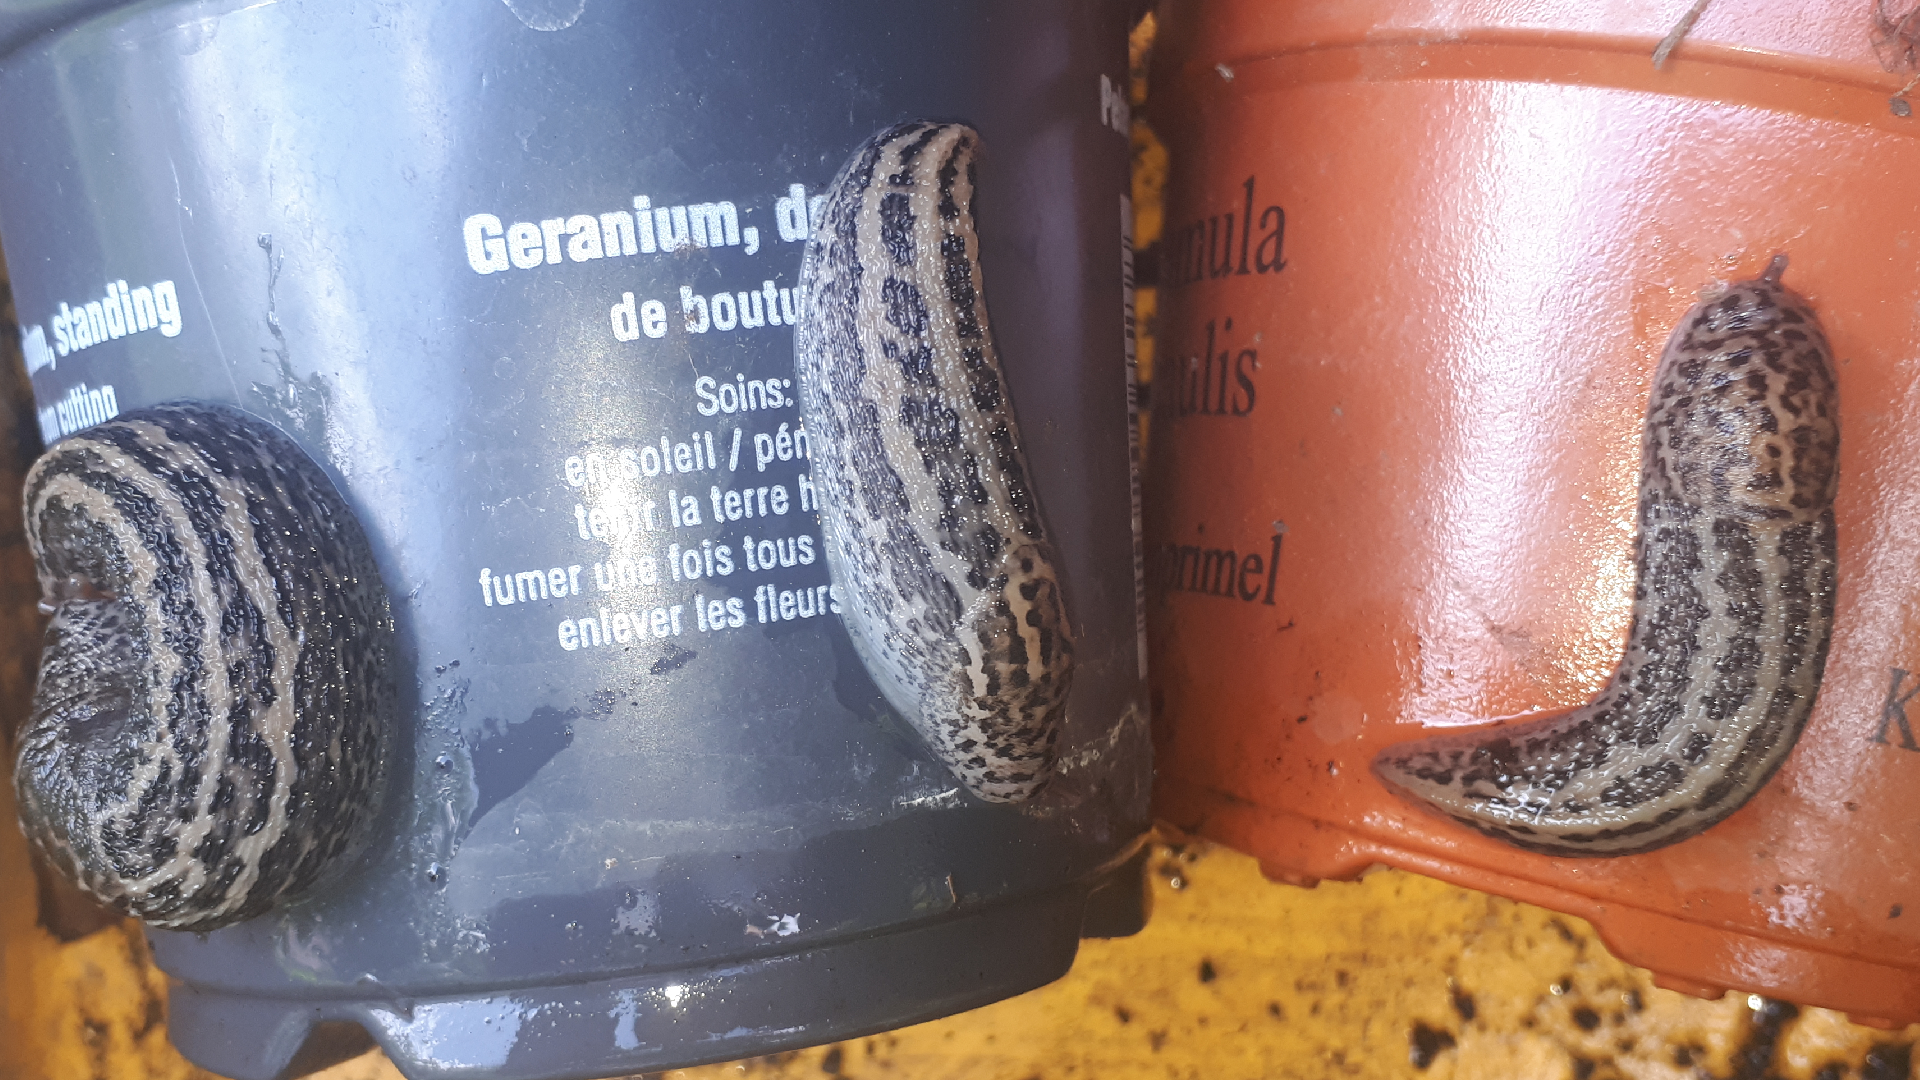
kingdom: Animalia
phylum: Mollusca
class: Gastropoda
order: Stylommatophora
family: Limacidae
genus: Limax
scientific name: Limax maximus
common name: Great grey slug
